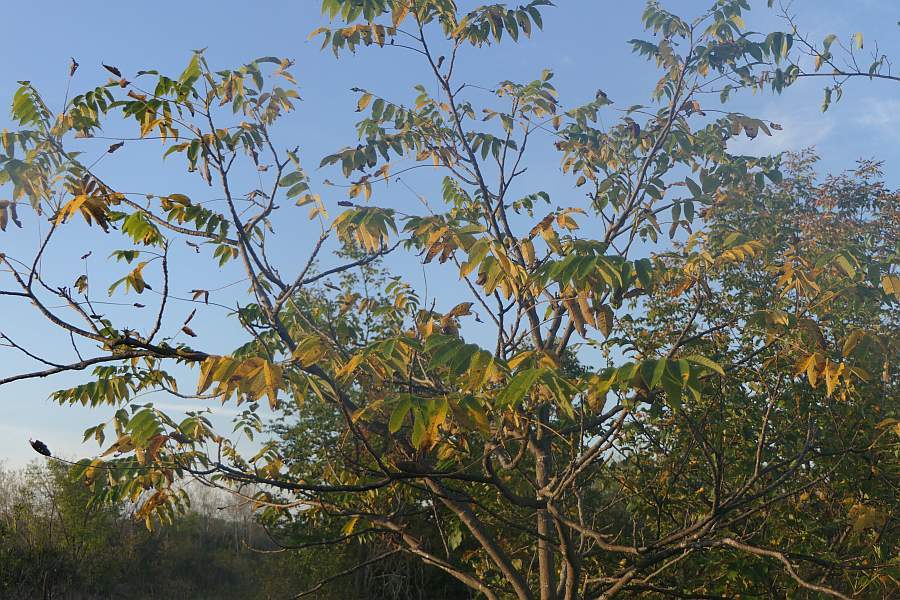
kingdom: Plantae
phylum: Tracheophyta
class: Magnoliopsida
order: Fagales
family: Juglandaceae
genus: Juglans
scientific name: Juglans cinerea
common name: Butternut
